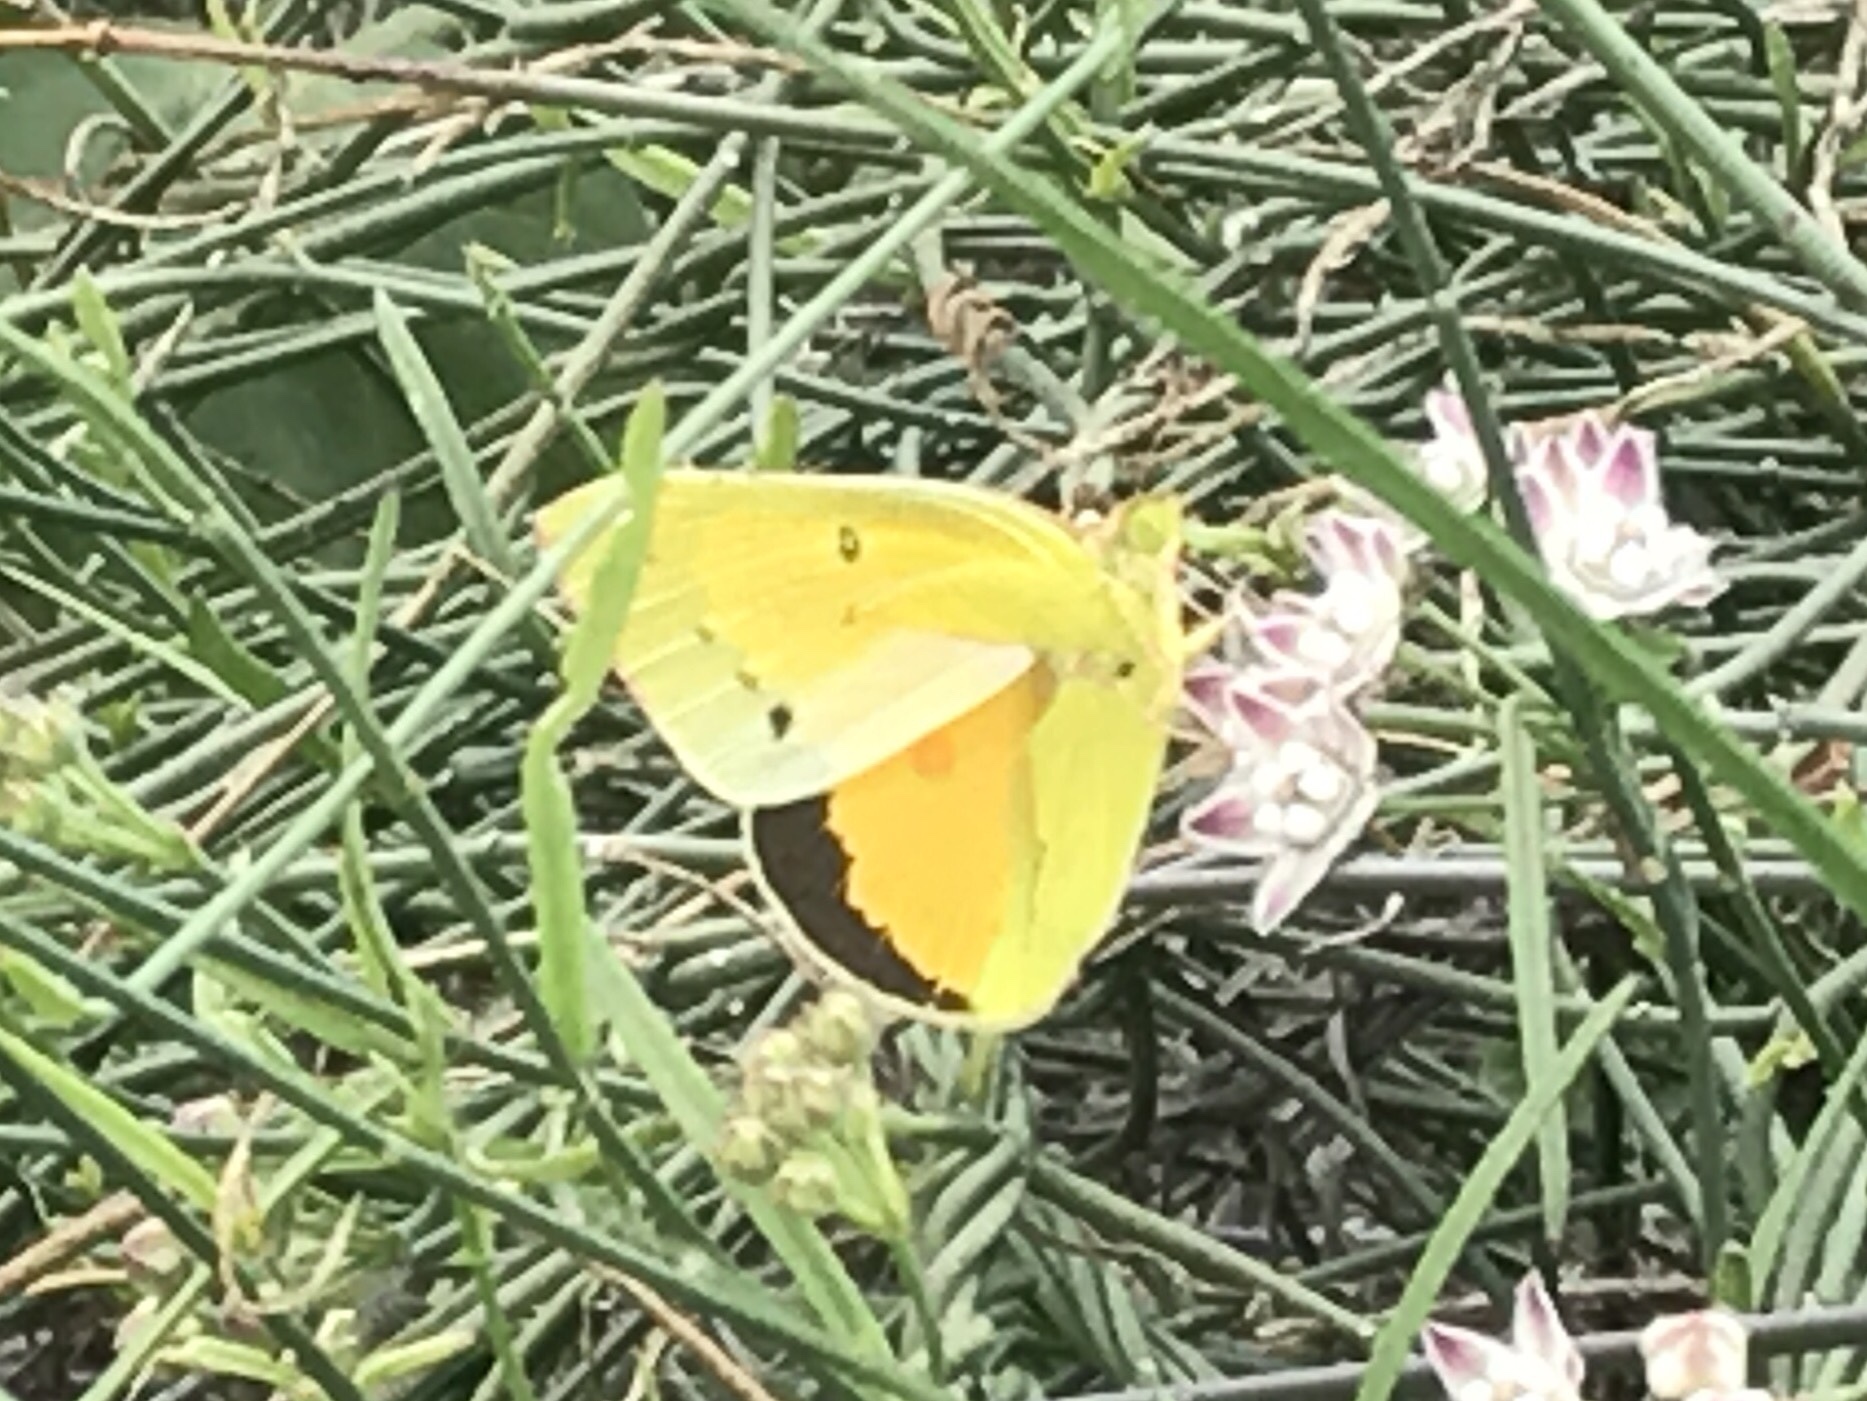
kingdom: Animalia
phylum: Arthropoda
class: Insecta
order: Lepidoptera
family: Pieridae
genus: Colias
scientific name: Colias eurytheme
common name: Alfalfa butterfly
